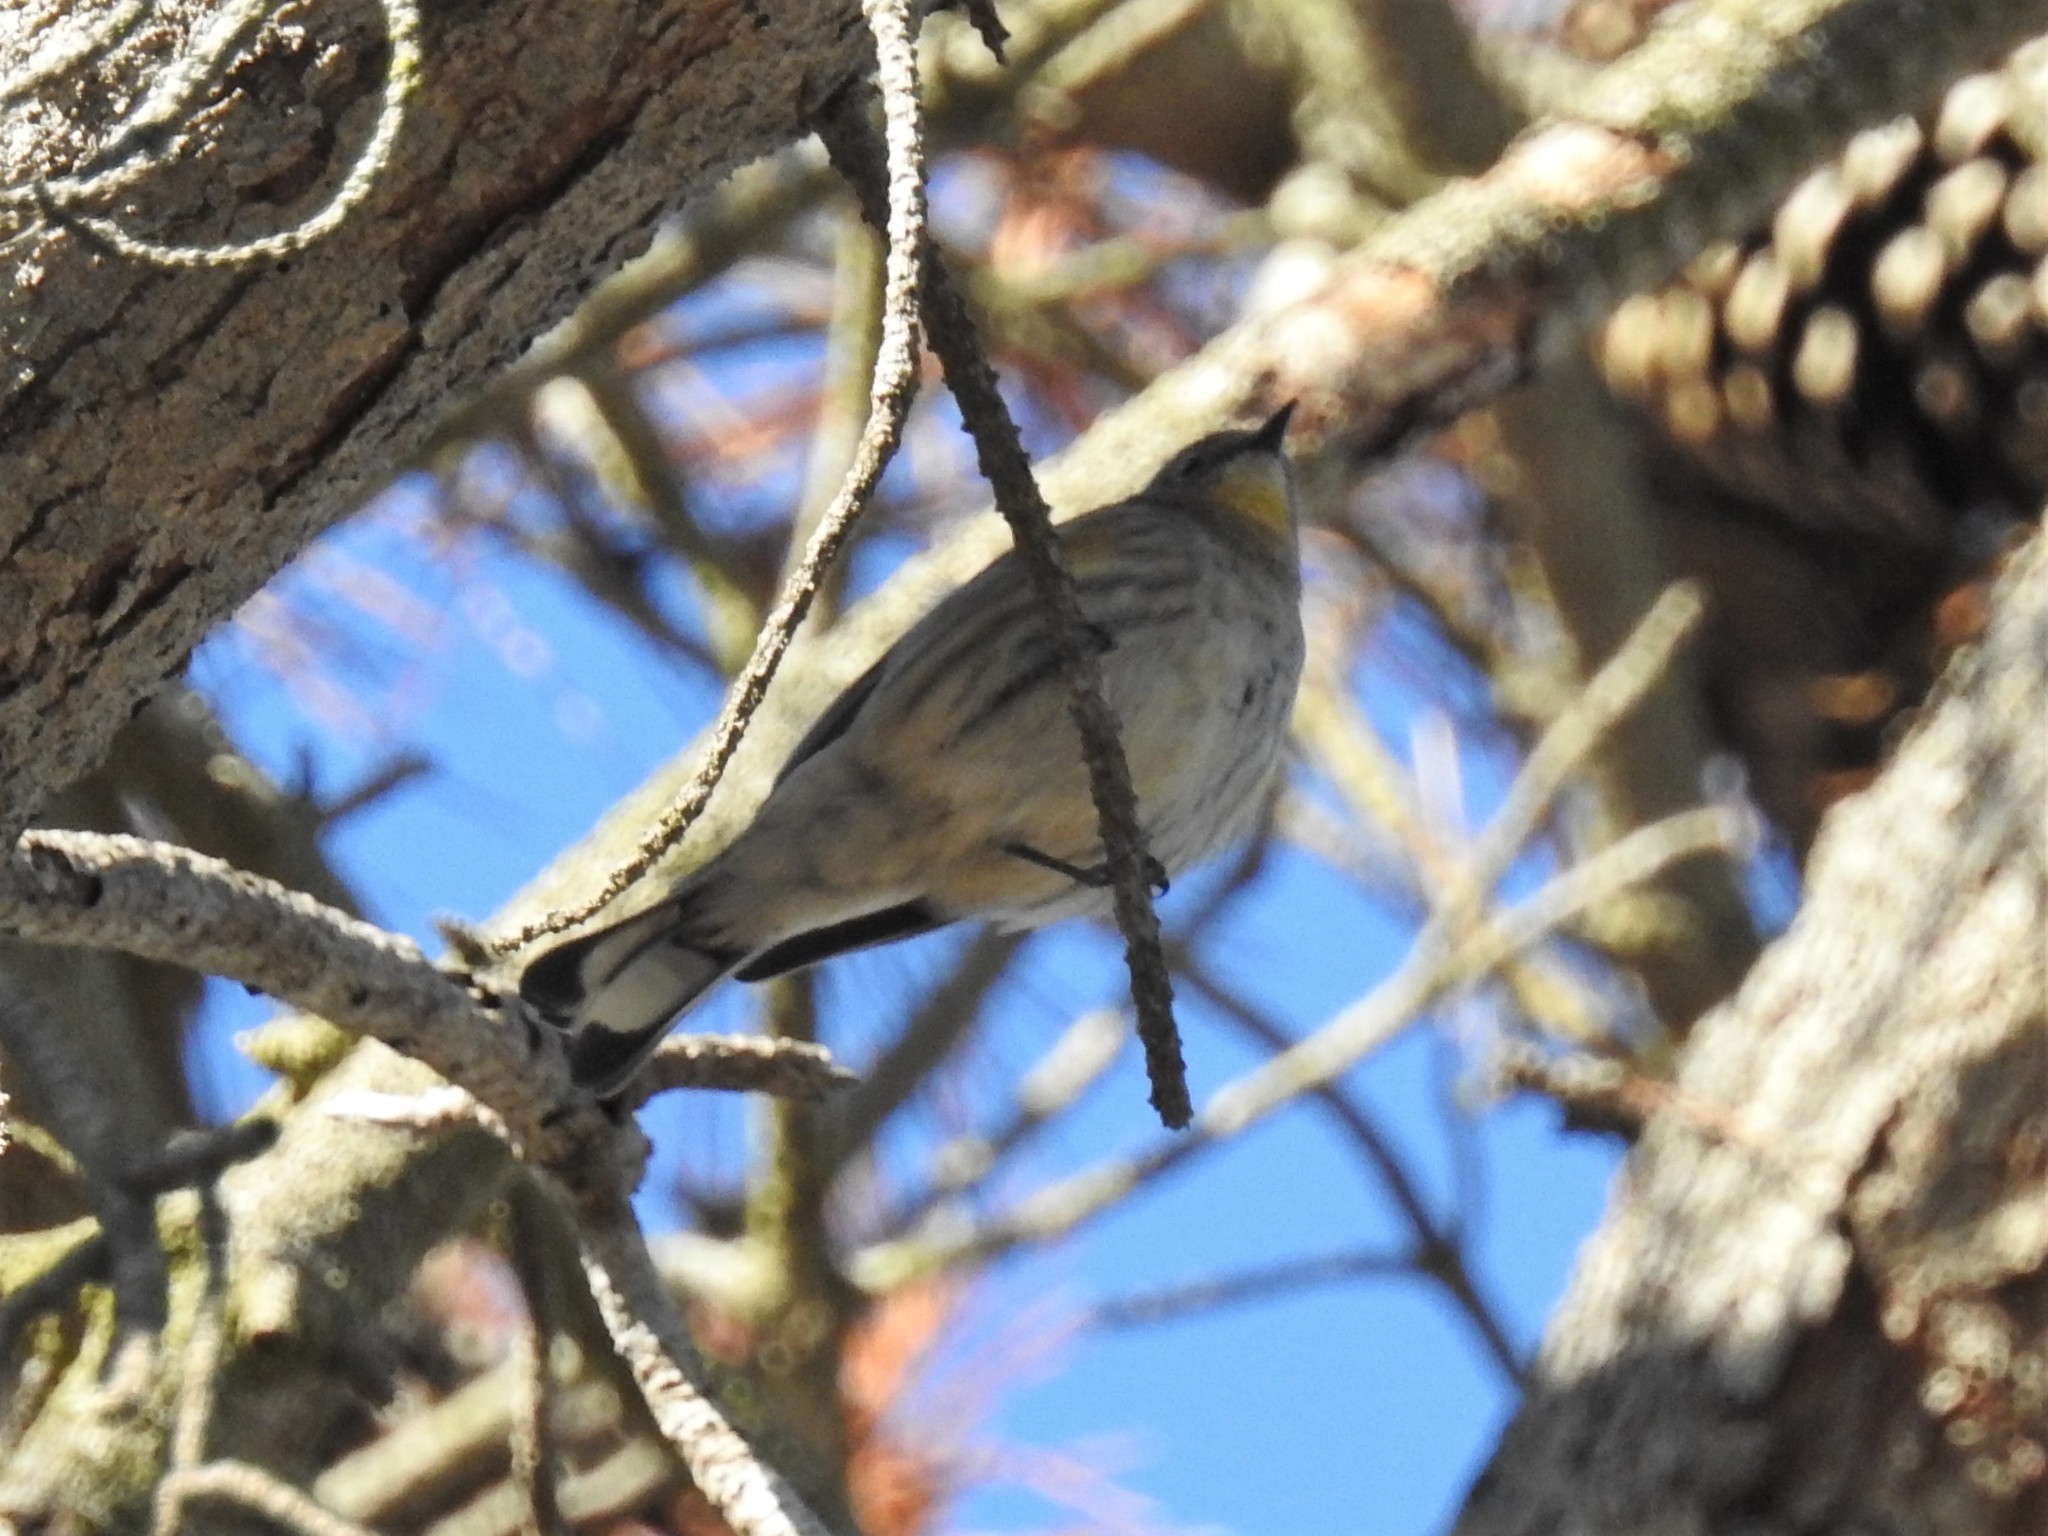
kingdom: Animalia
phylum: Chordata
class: Aves
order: Passeriformes
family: Parulidae
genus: Setophaga
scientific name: Setophaga coronata
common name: Myrtle warbler
